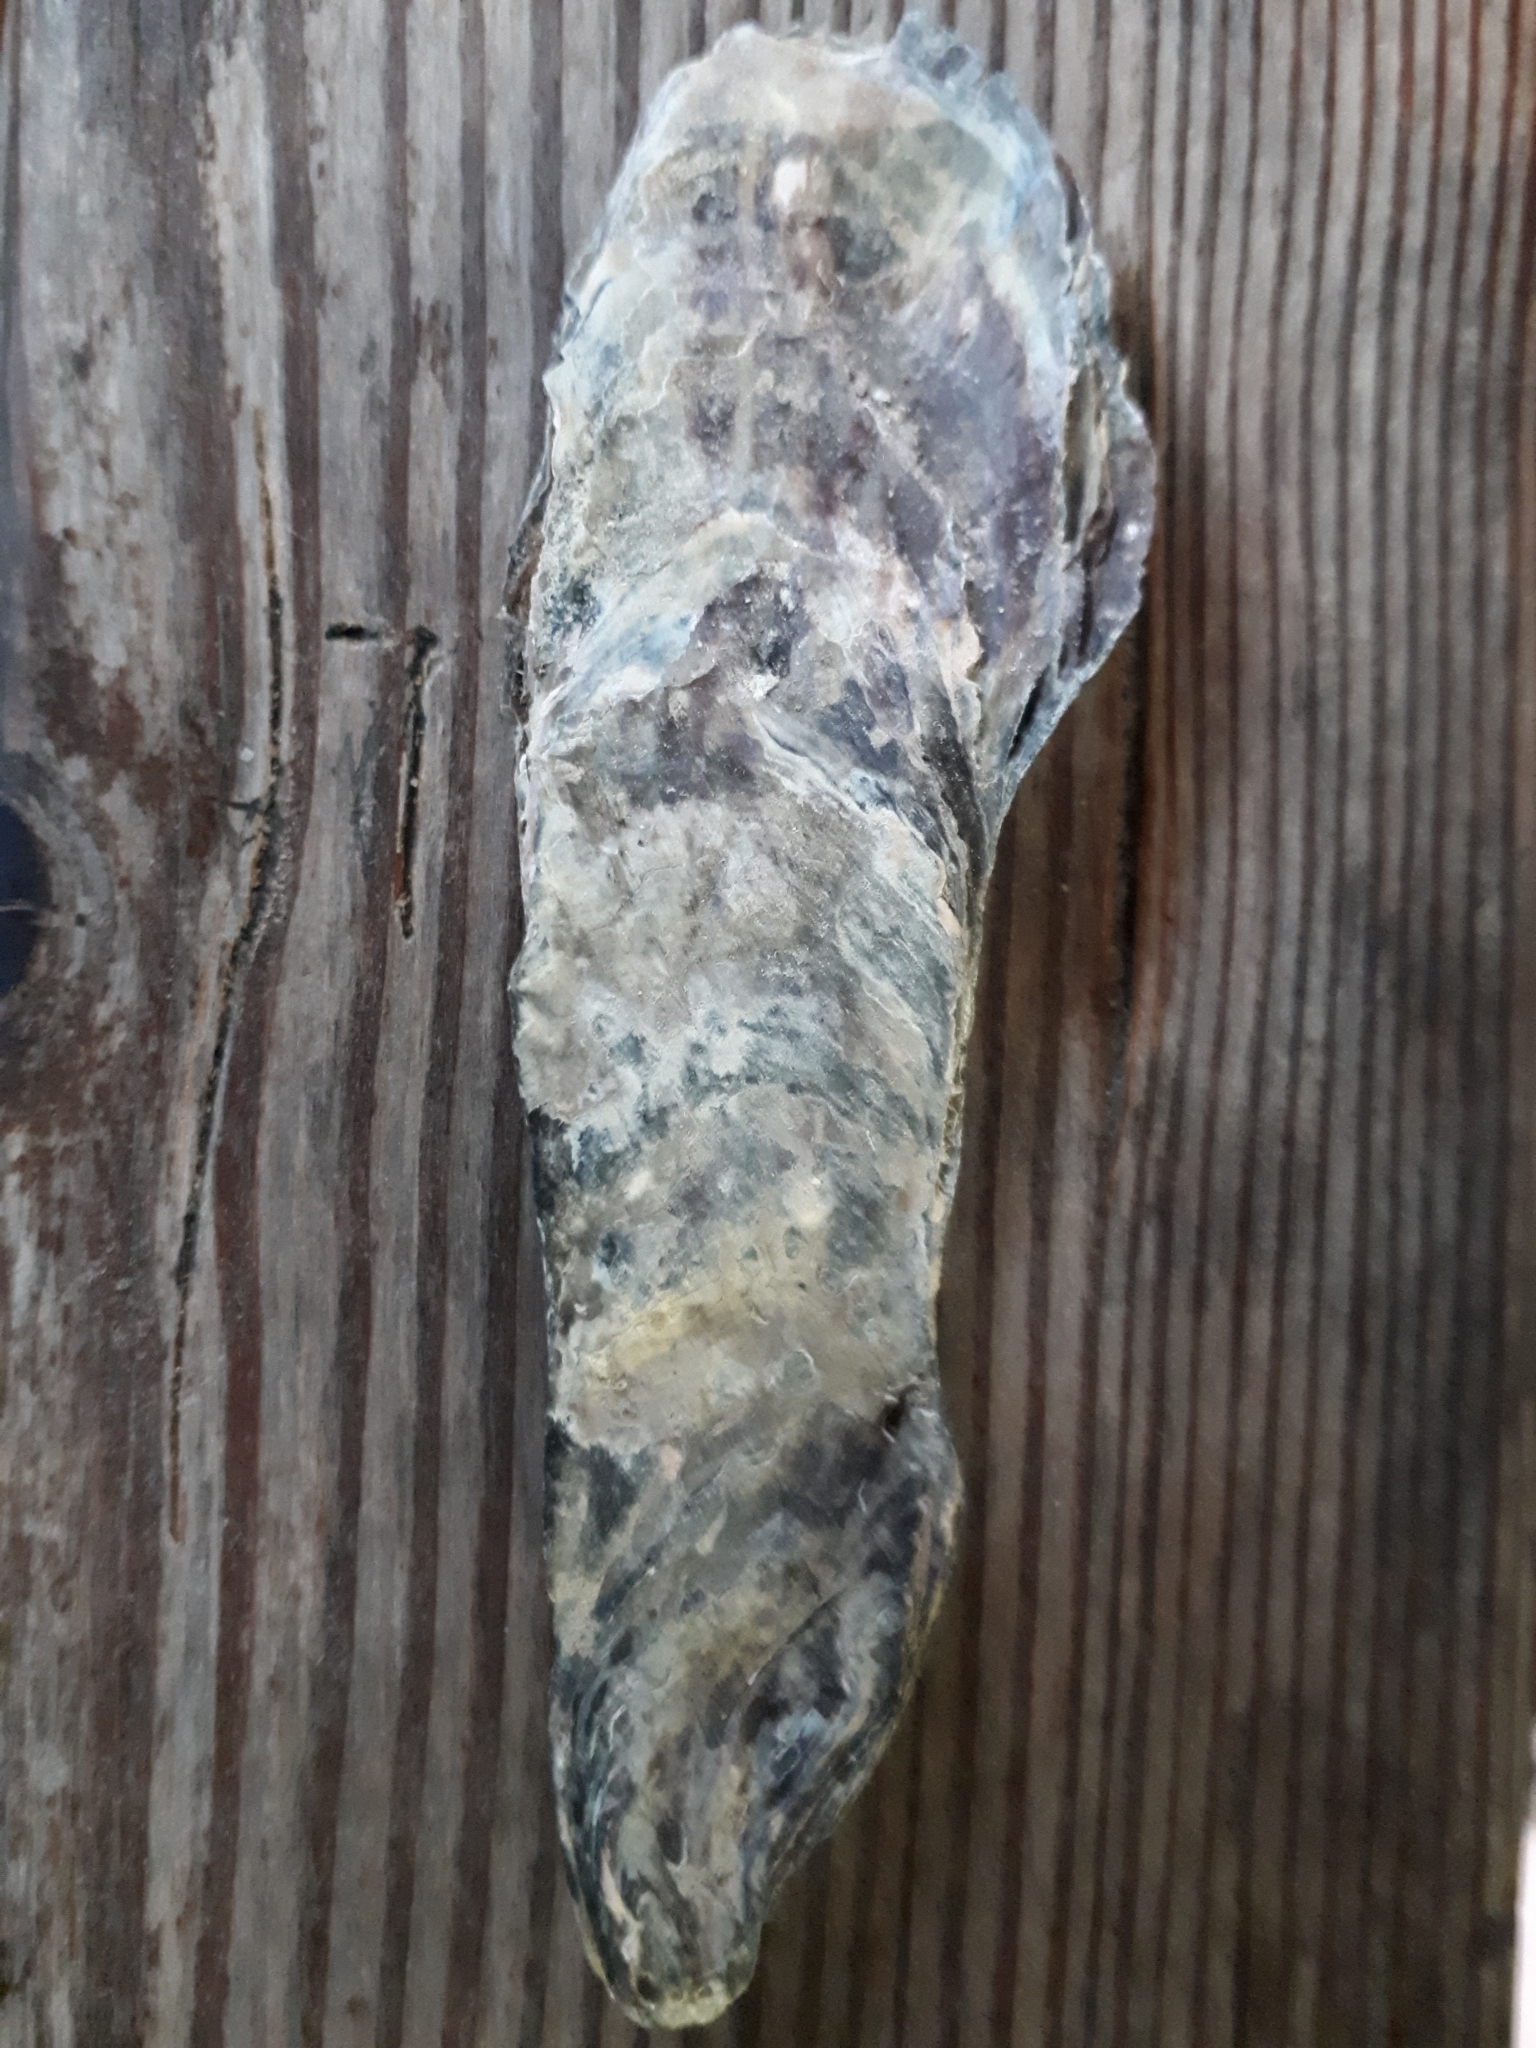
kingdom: Animalia
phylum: Mollusca
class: Bivalvia
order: Ostreida
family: Ostreidae
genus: Magallana
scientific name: Magallana gigas
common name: Pacific oyster
